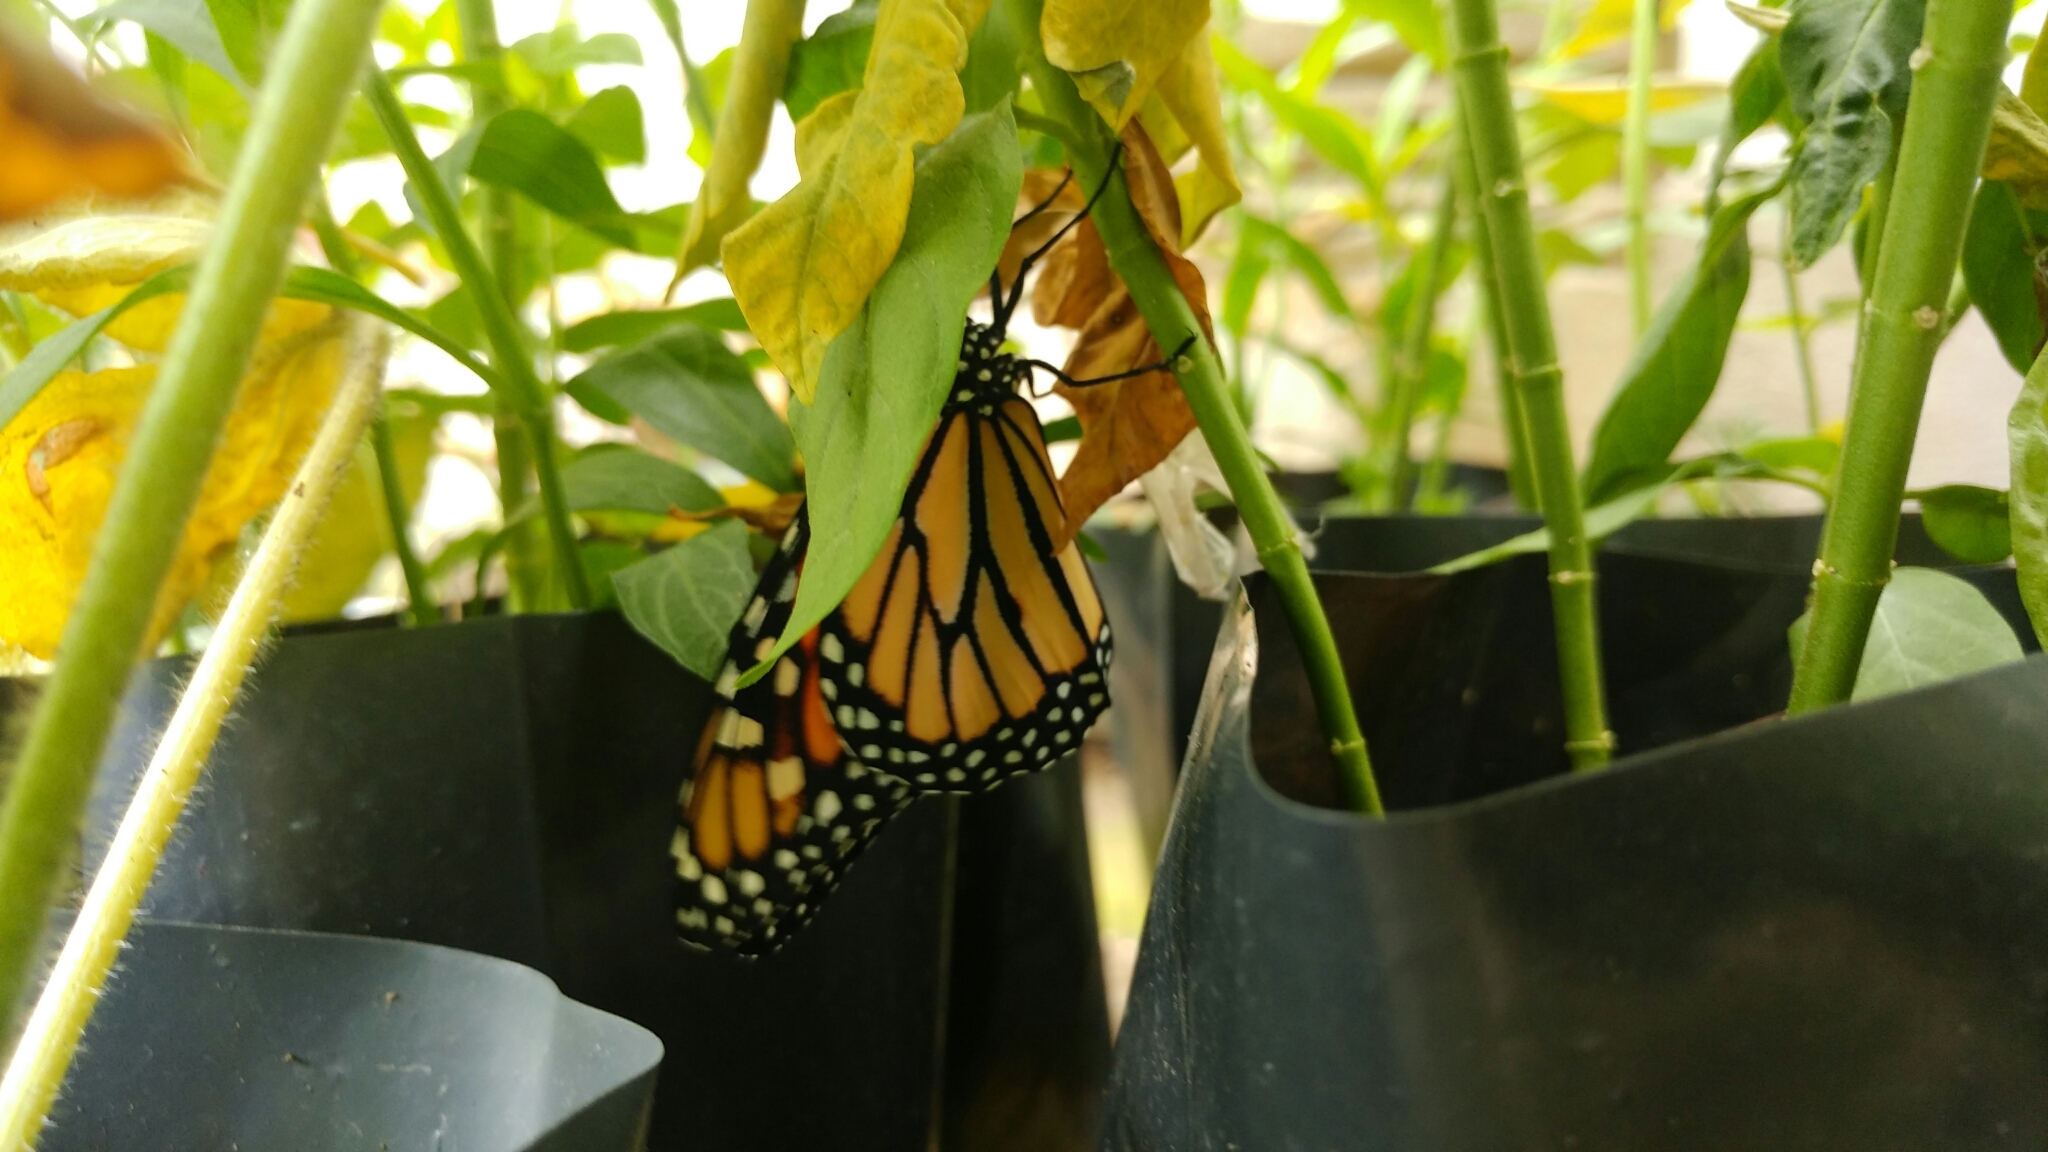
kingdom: Animalia
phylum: Arthropoda
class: Insecta
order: Lepidoptera
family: Nymphalidae
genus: Danaus
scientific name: Danaus plexippus
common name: Monarch
